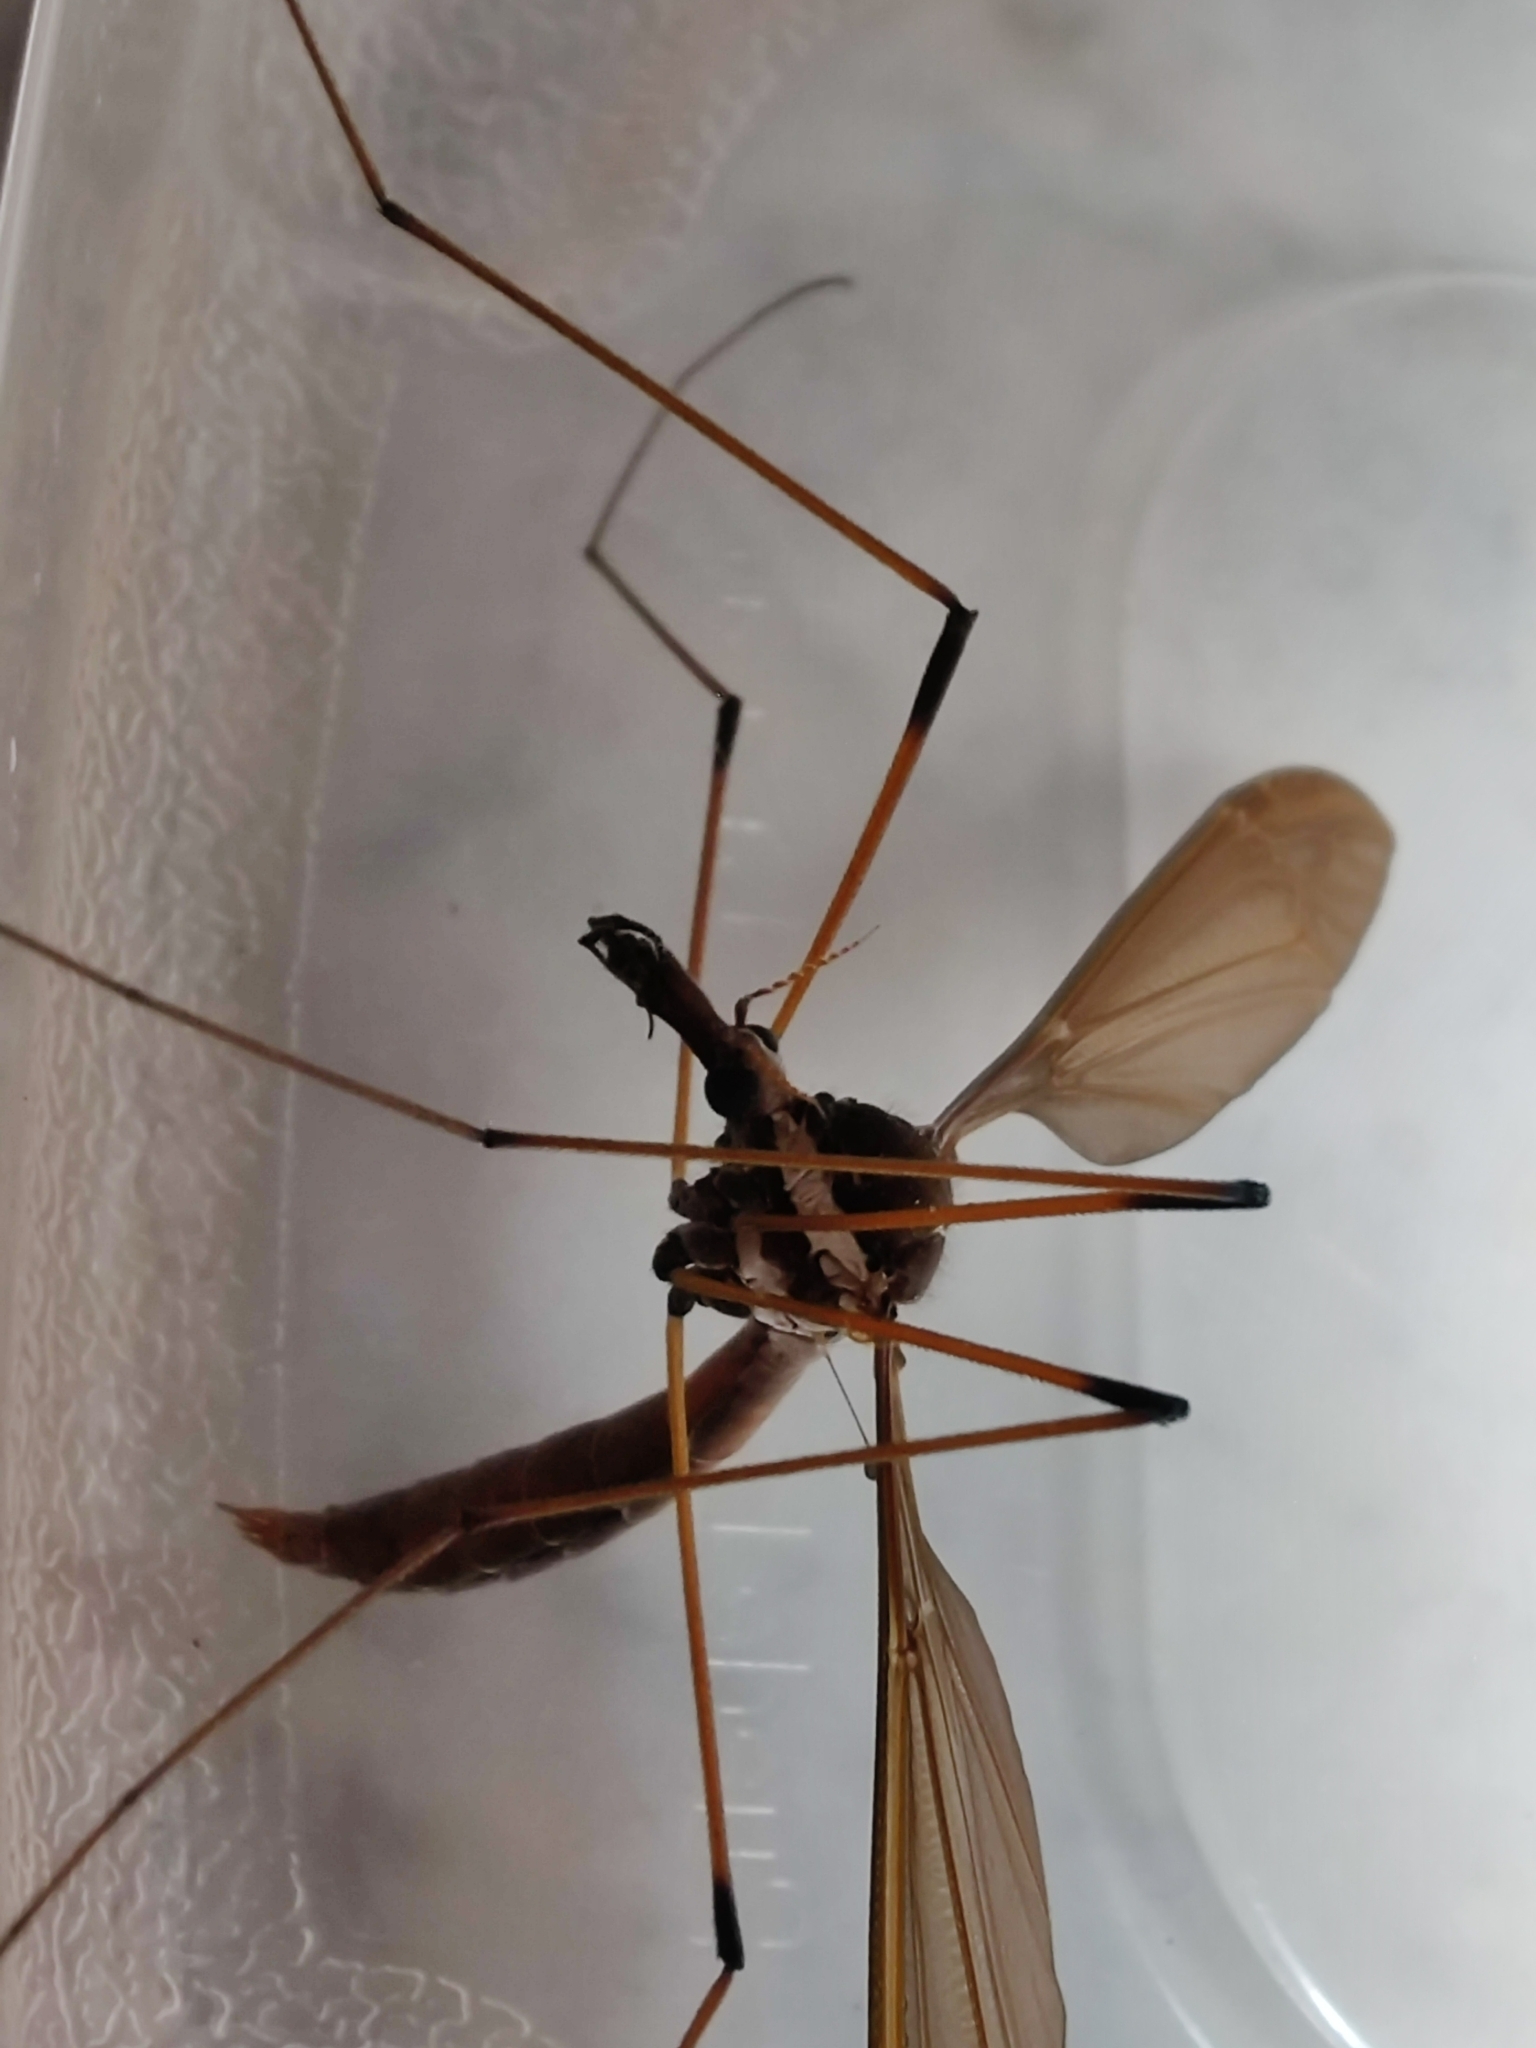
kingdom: Animalia
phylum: Arthropoda
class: Insecta
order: Diptera
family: Tipulidae
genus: Holorusia
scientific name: Holorusia hespera
